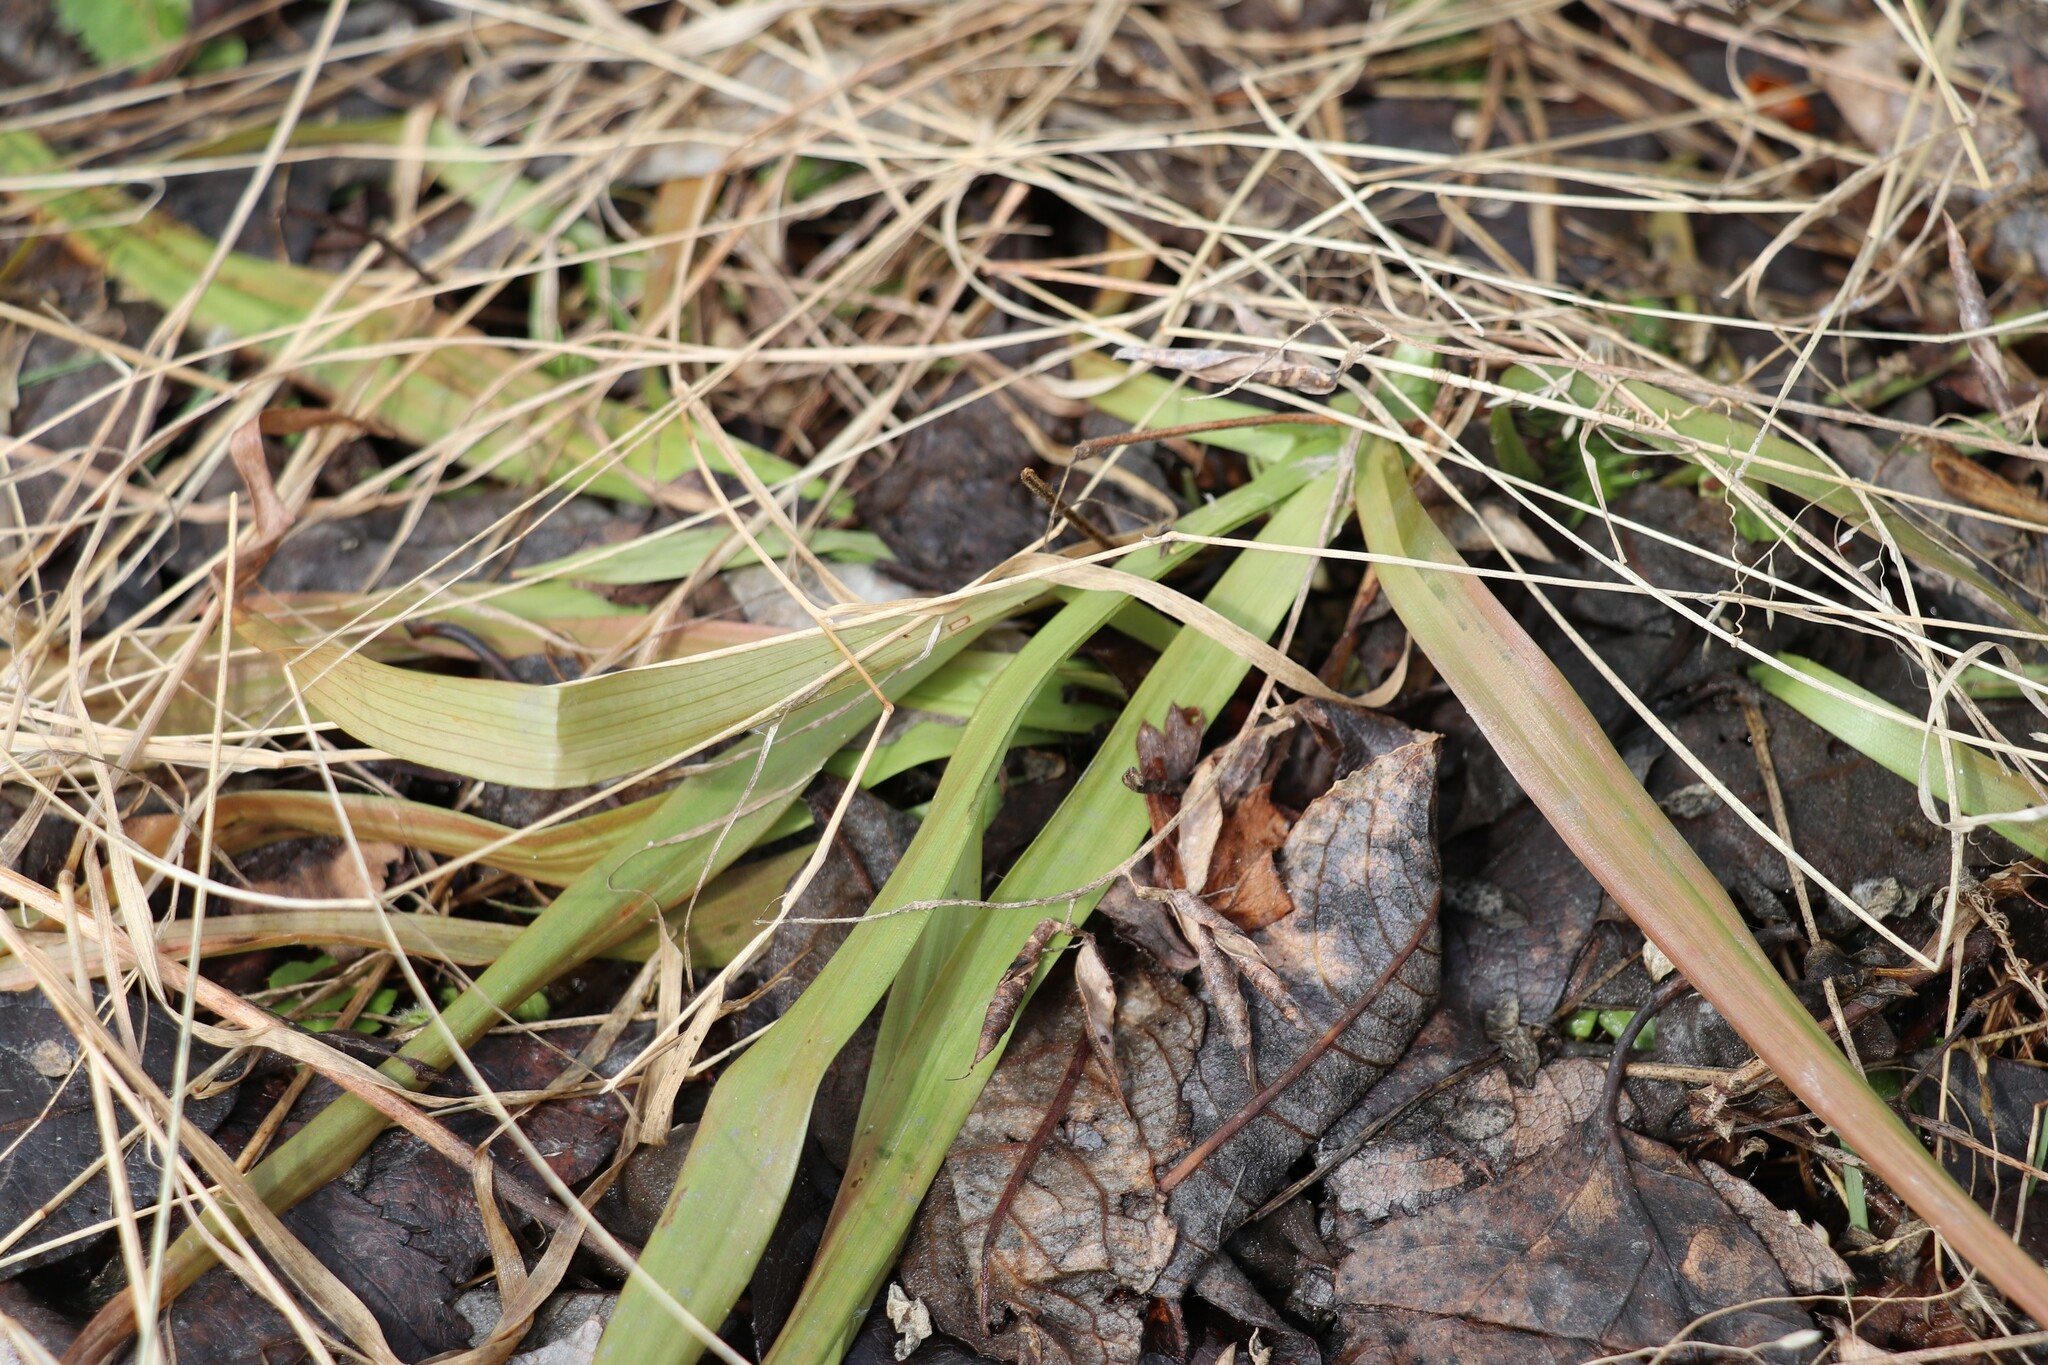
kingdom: Plantae
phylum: Tracheophyta
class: Liliopsida
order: Poales
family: Juncaceae
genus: Luzula
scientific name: Luzula pilosa
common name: Hairy wood-rush
